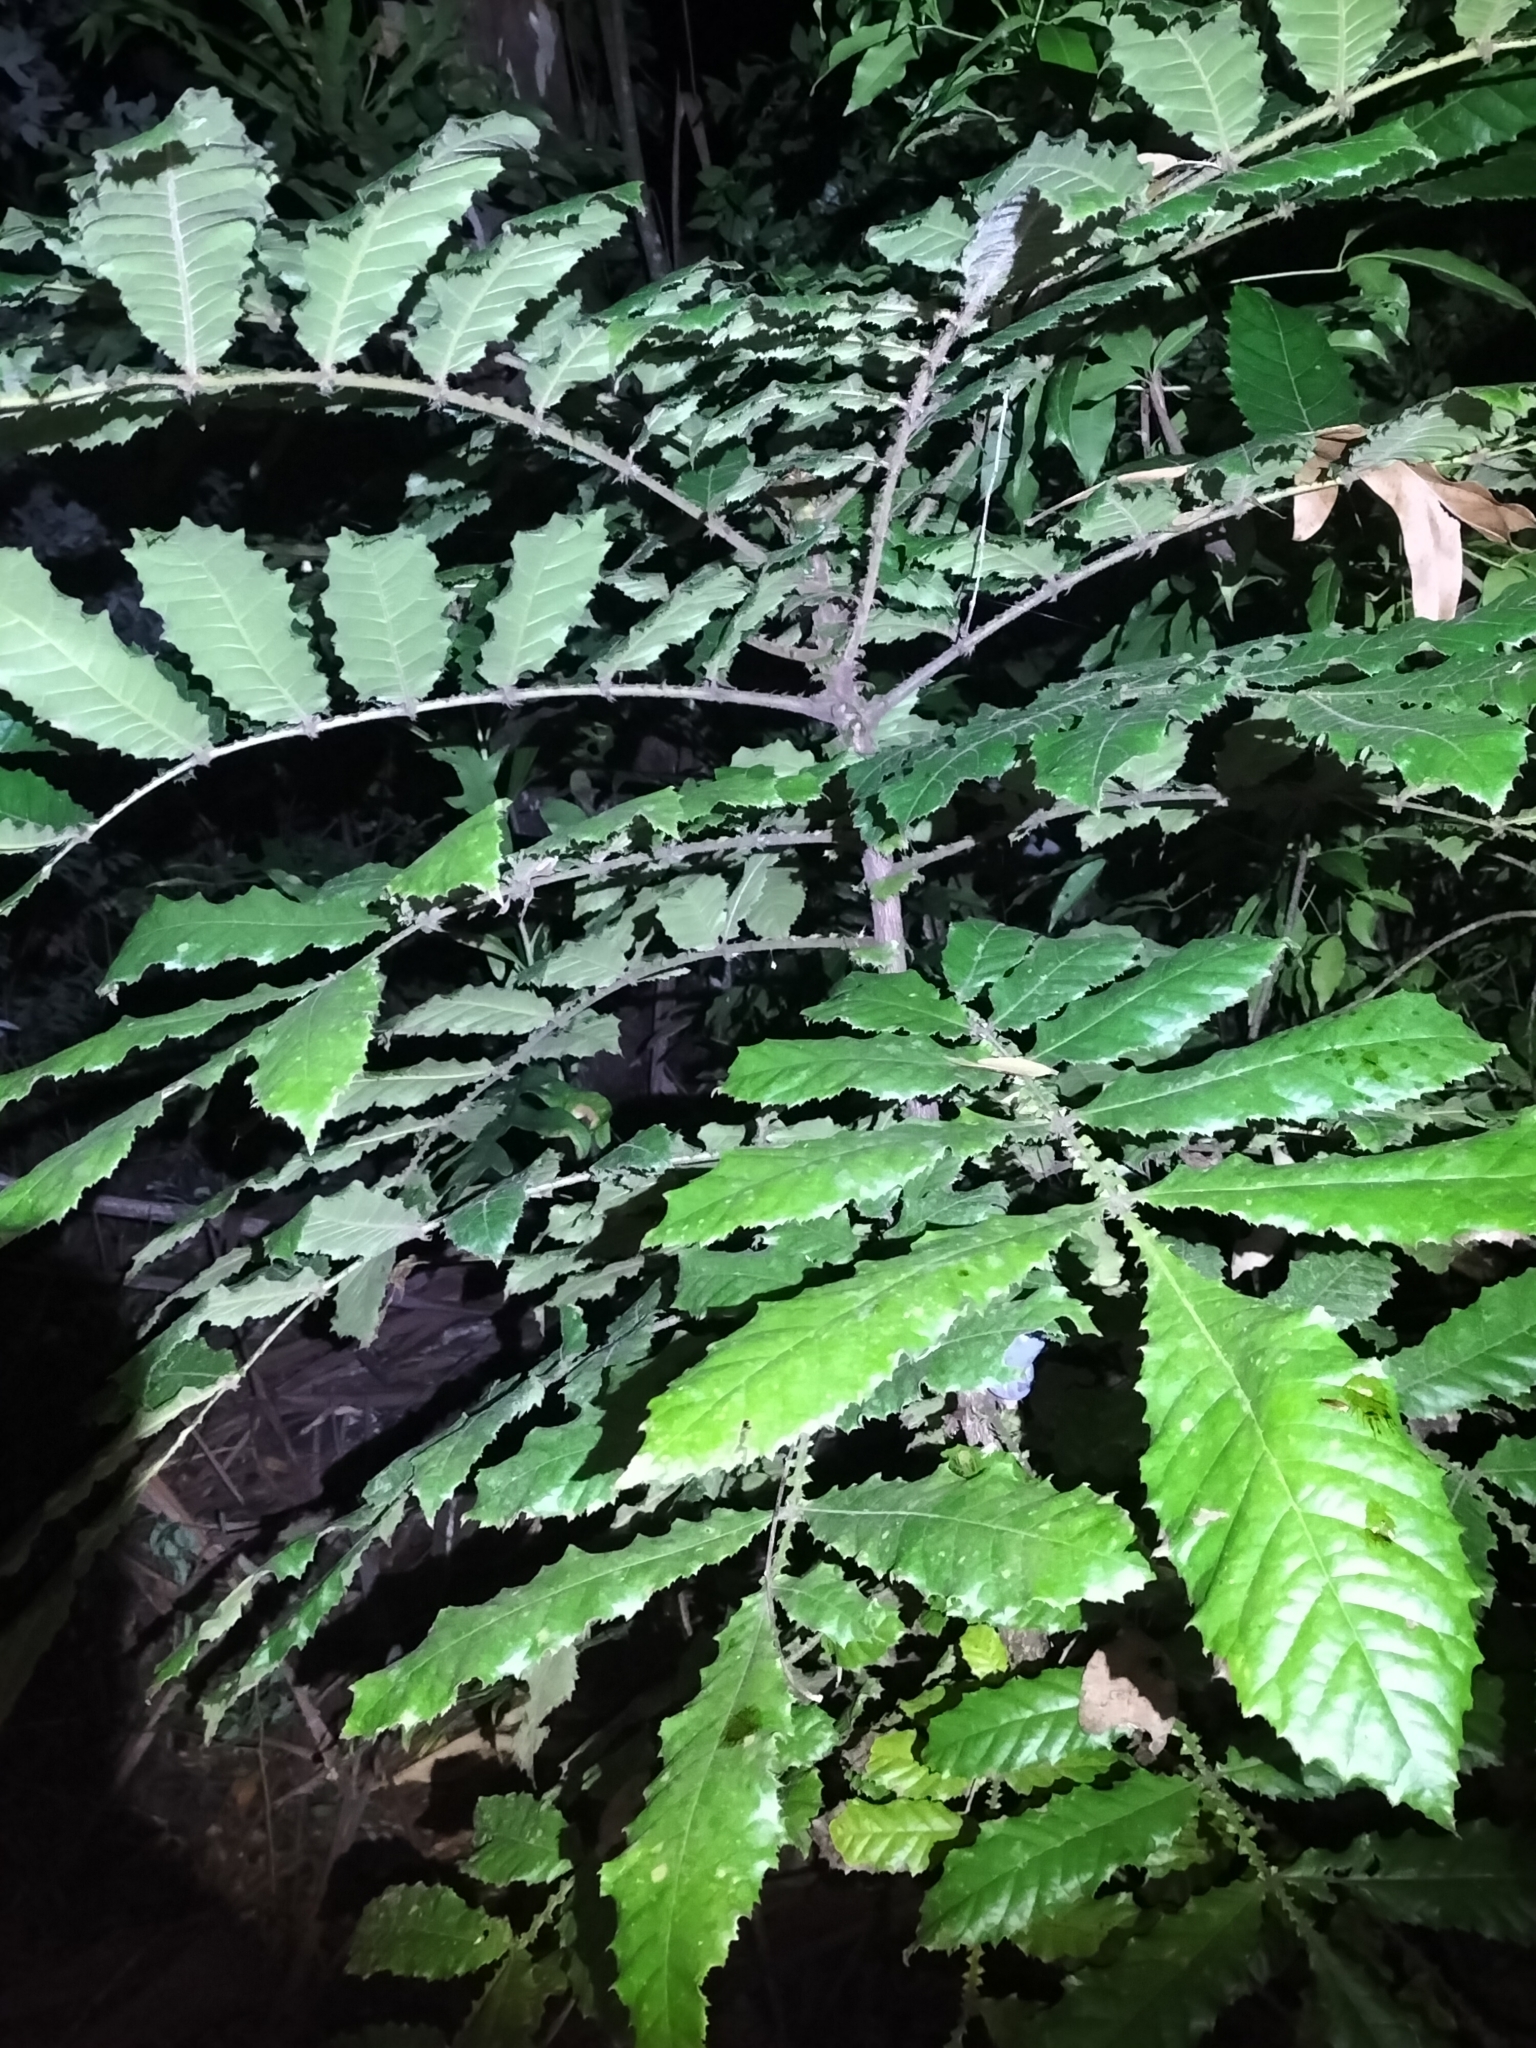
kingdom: Plantae
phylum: Tracheophyta
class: Magnoliopsida
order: Oxalidales
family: Cunoniaceae
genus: Davidsonia
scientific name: Davidsonia pruriens
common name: Do-rog
